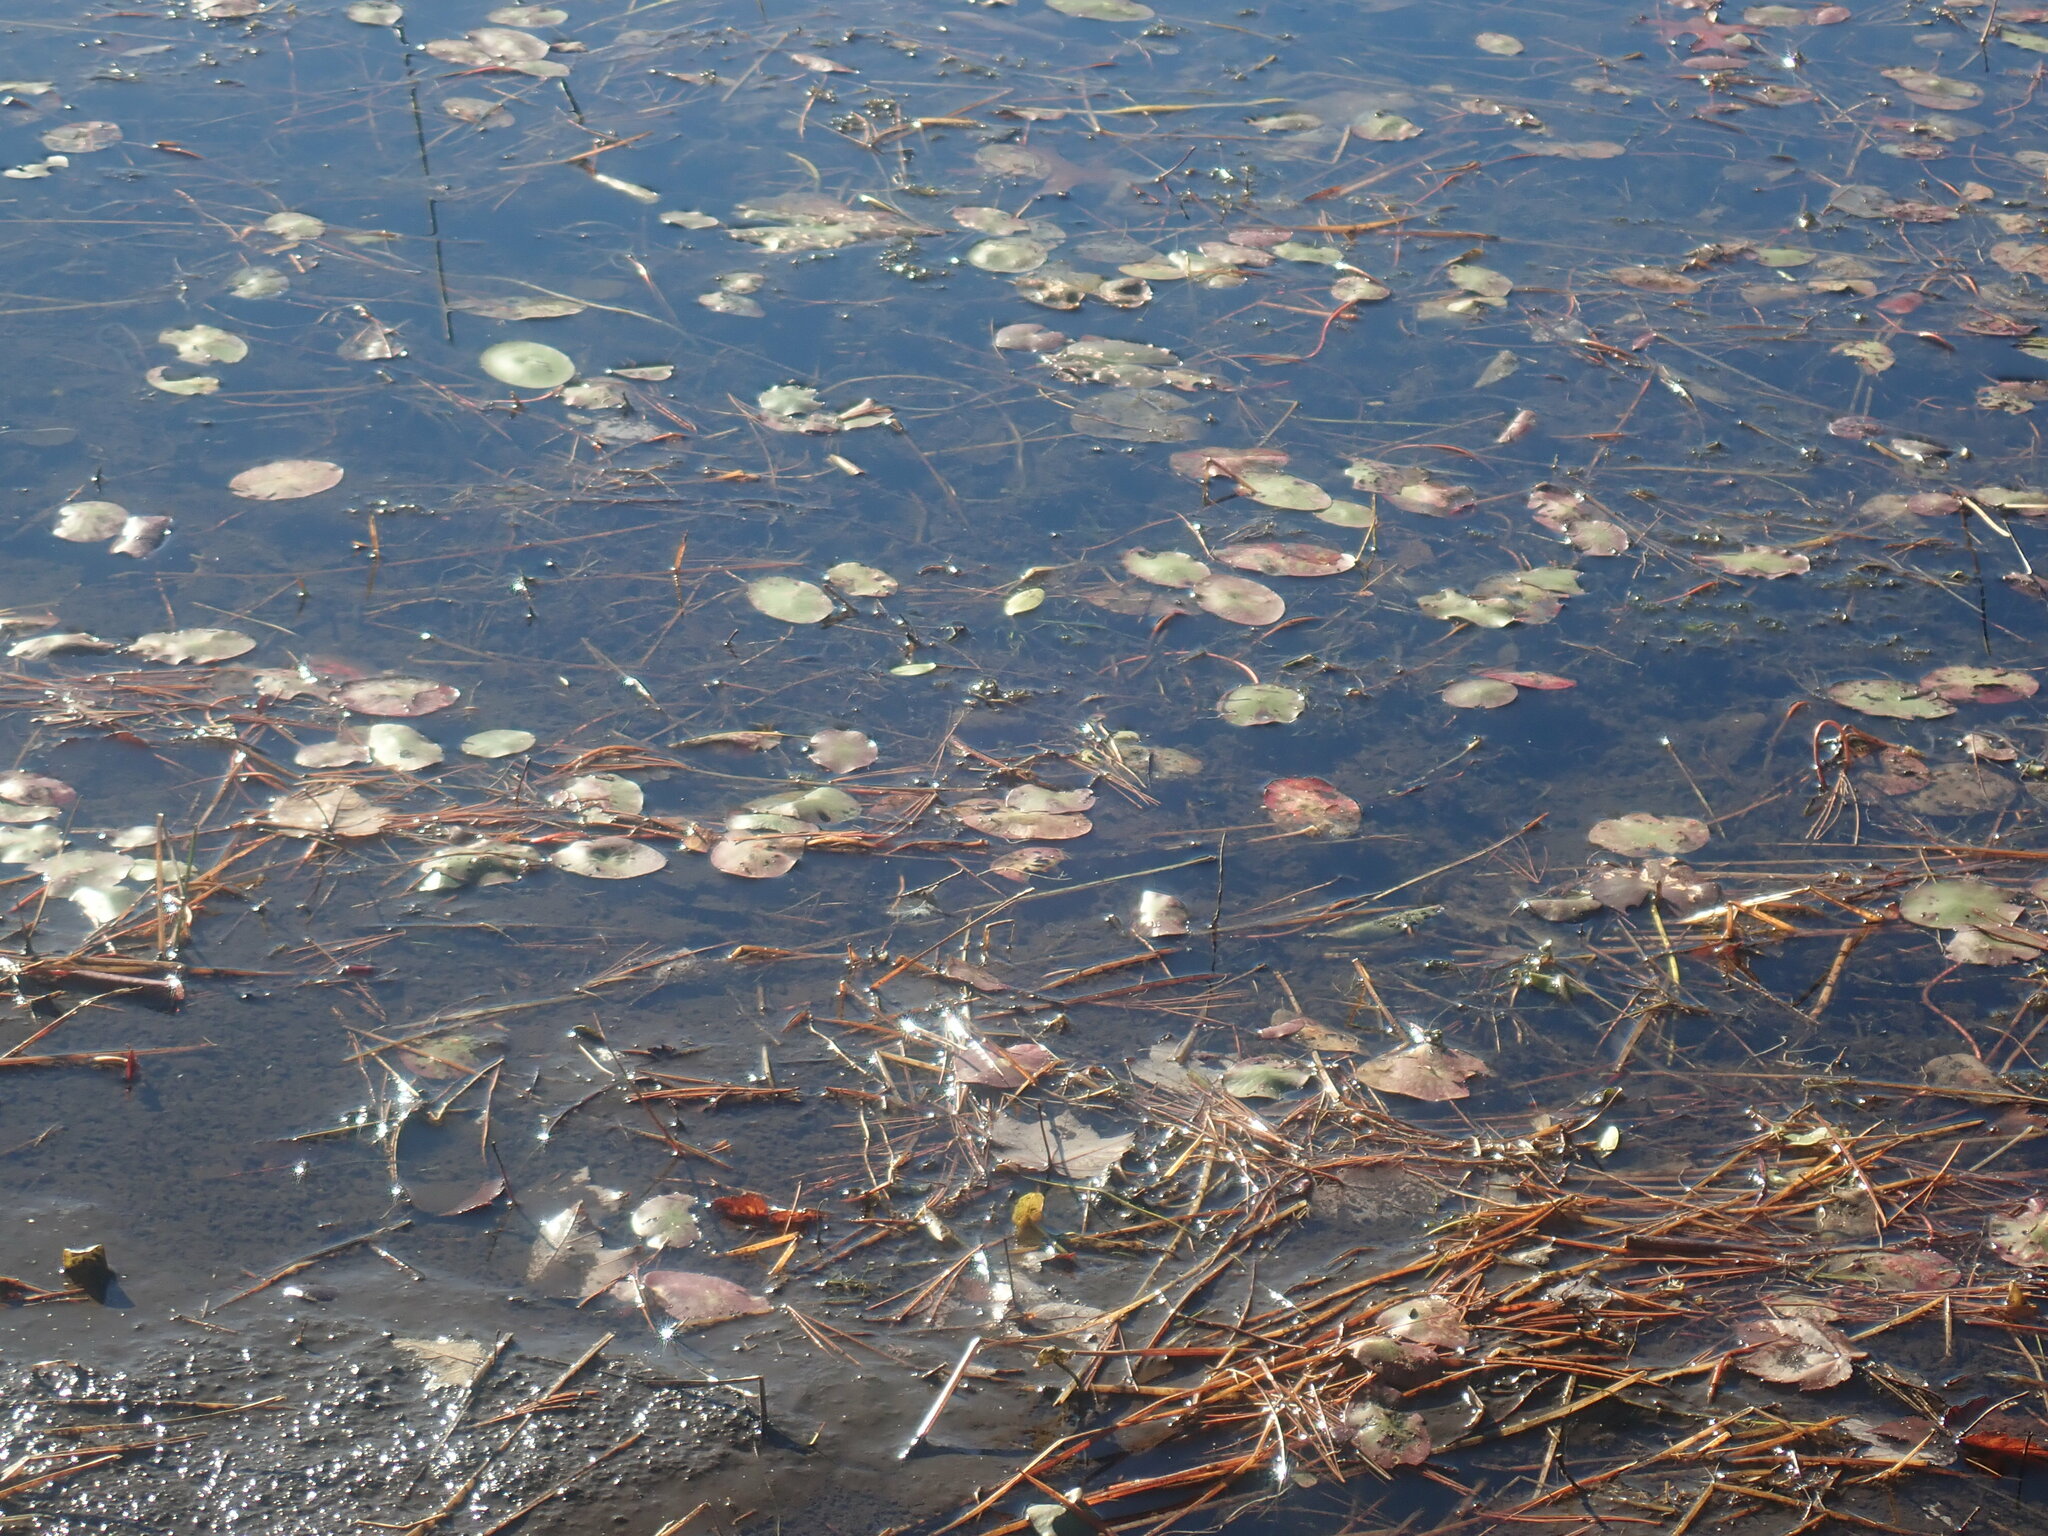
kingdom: Plantae
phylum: Tracheophyta
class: Magnoliopsida
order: Nymphaeales
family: Cabombaceae
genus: Brasenia
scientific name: Brasenia schreberi
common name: Water-shield
